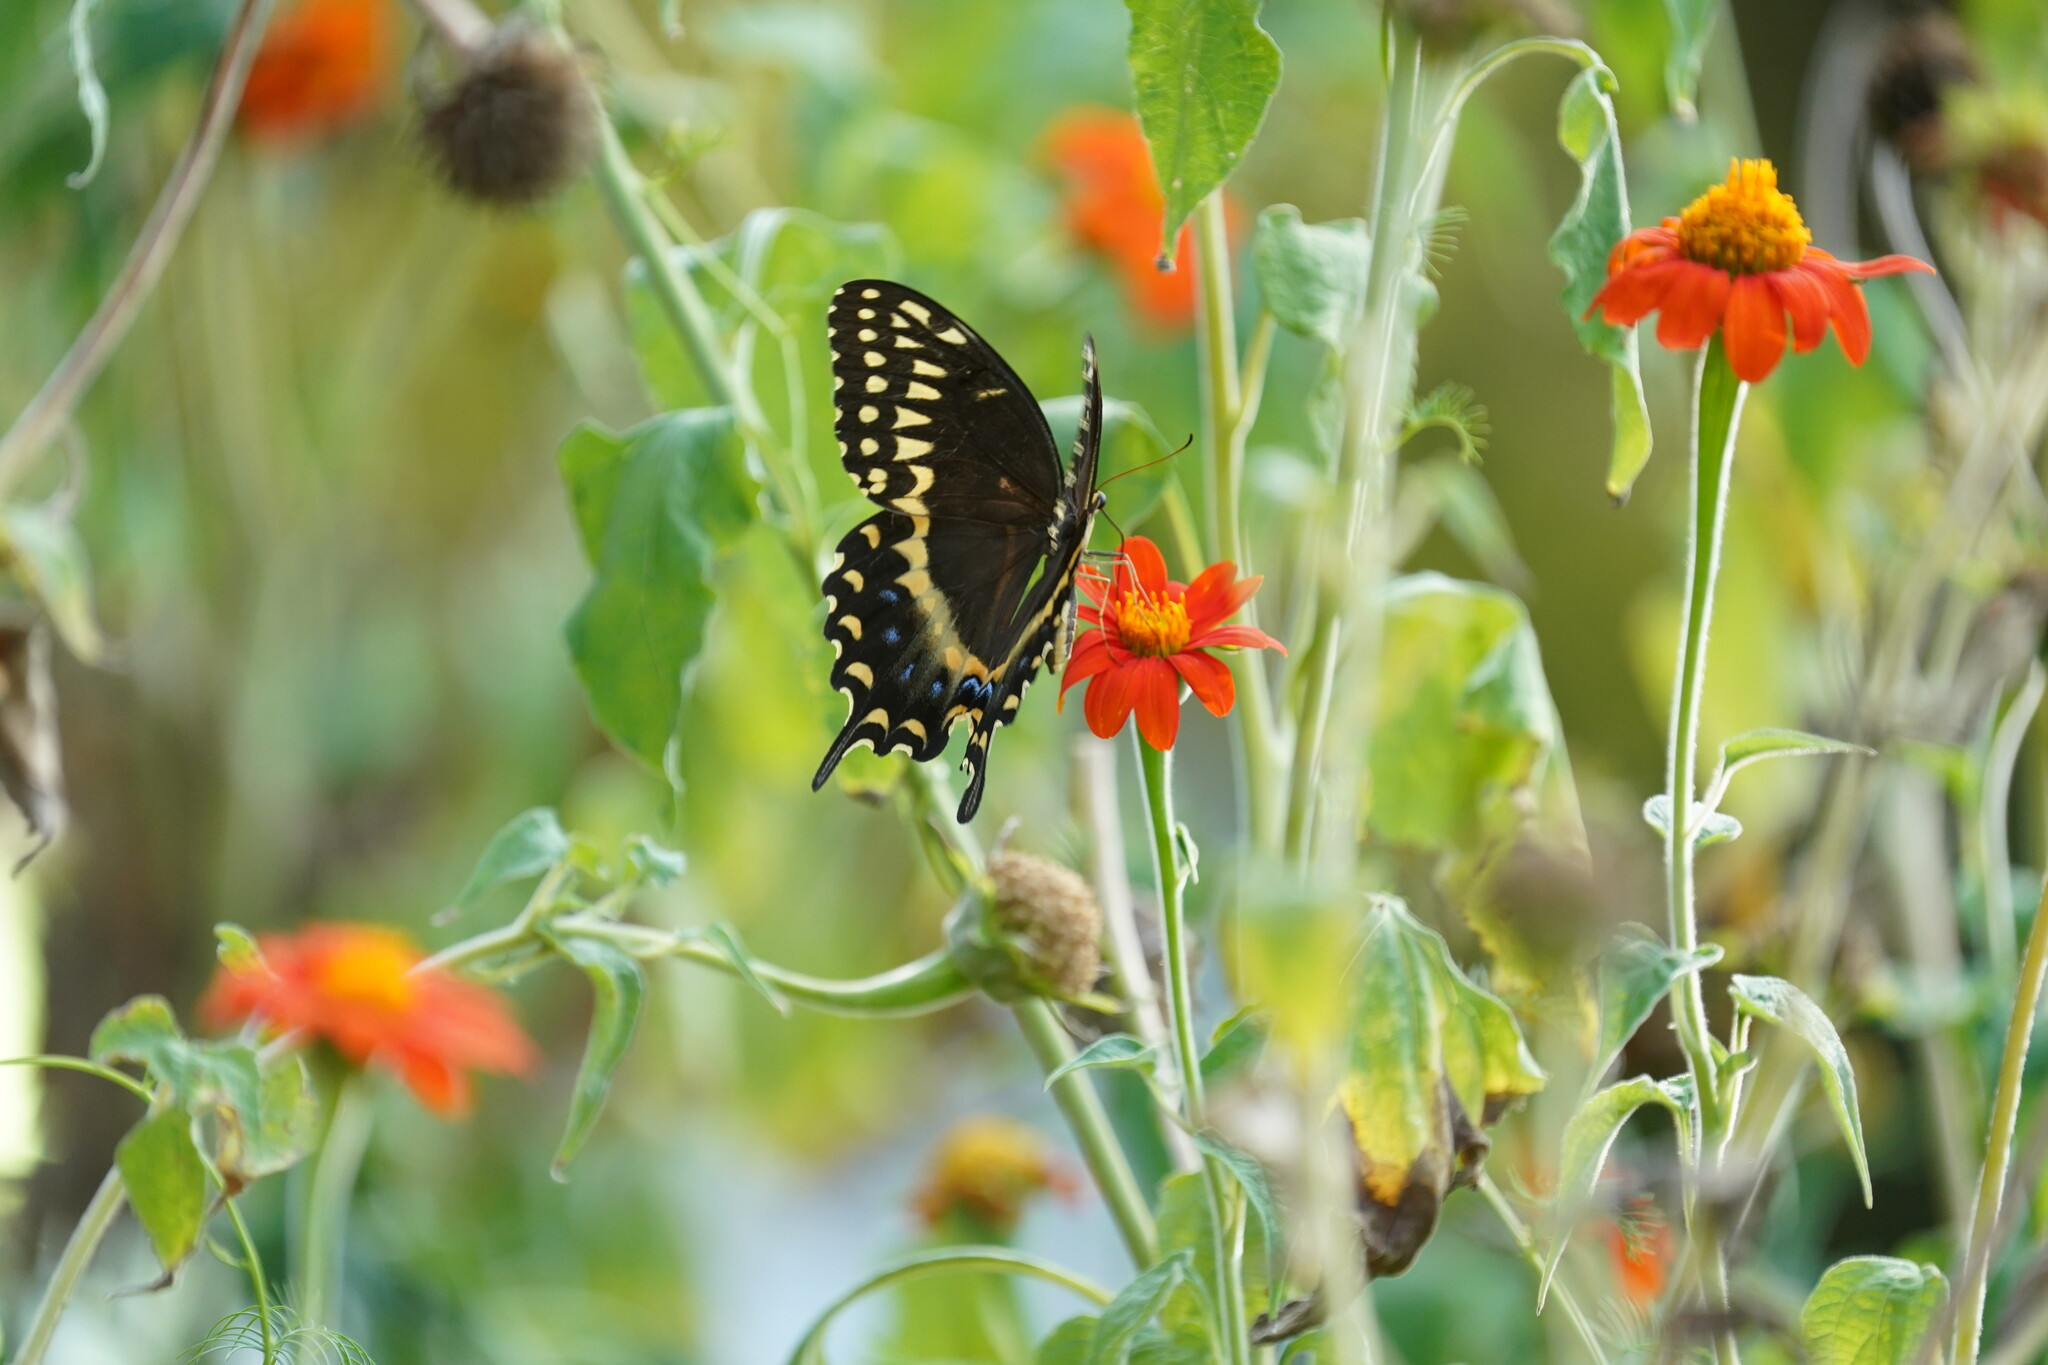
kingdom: Animalia
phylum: Arthropoda
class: Insecta
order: Lepidoptera
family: Papilionidae
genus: Papilio
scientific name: Papilio palamedes
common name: Palamedes swallowtail
